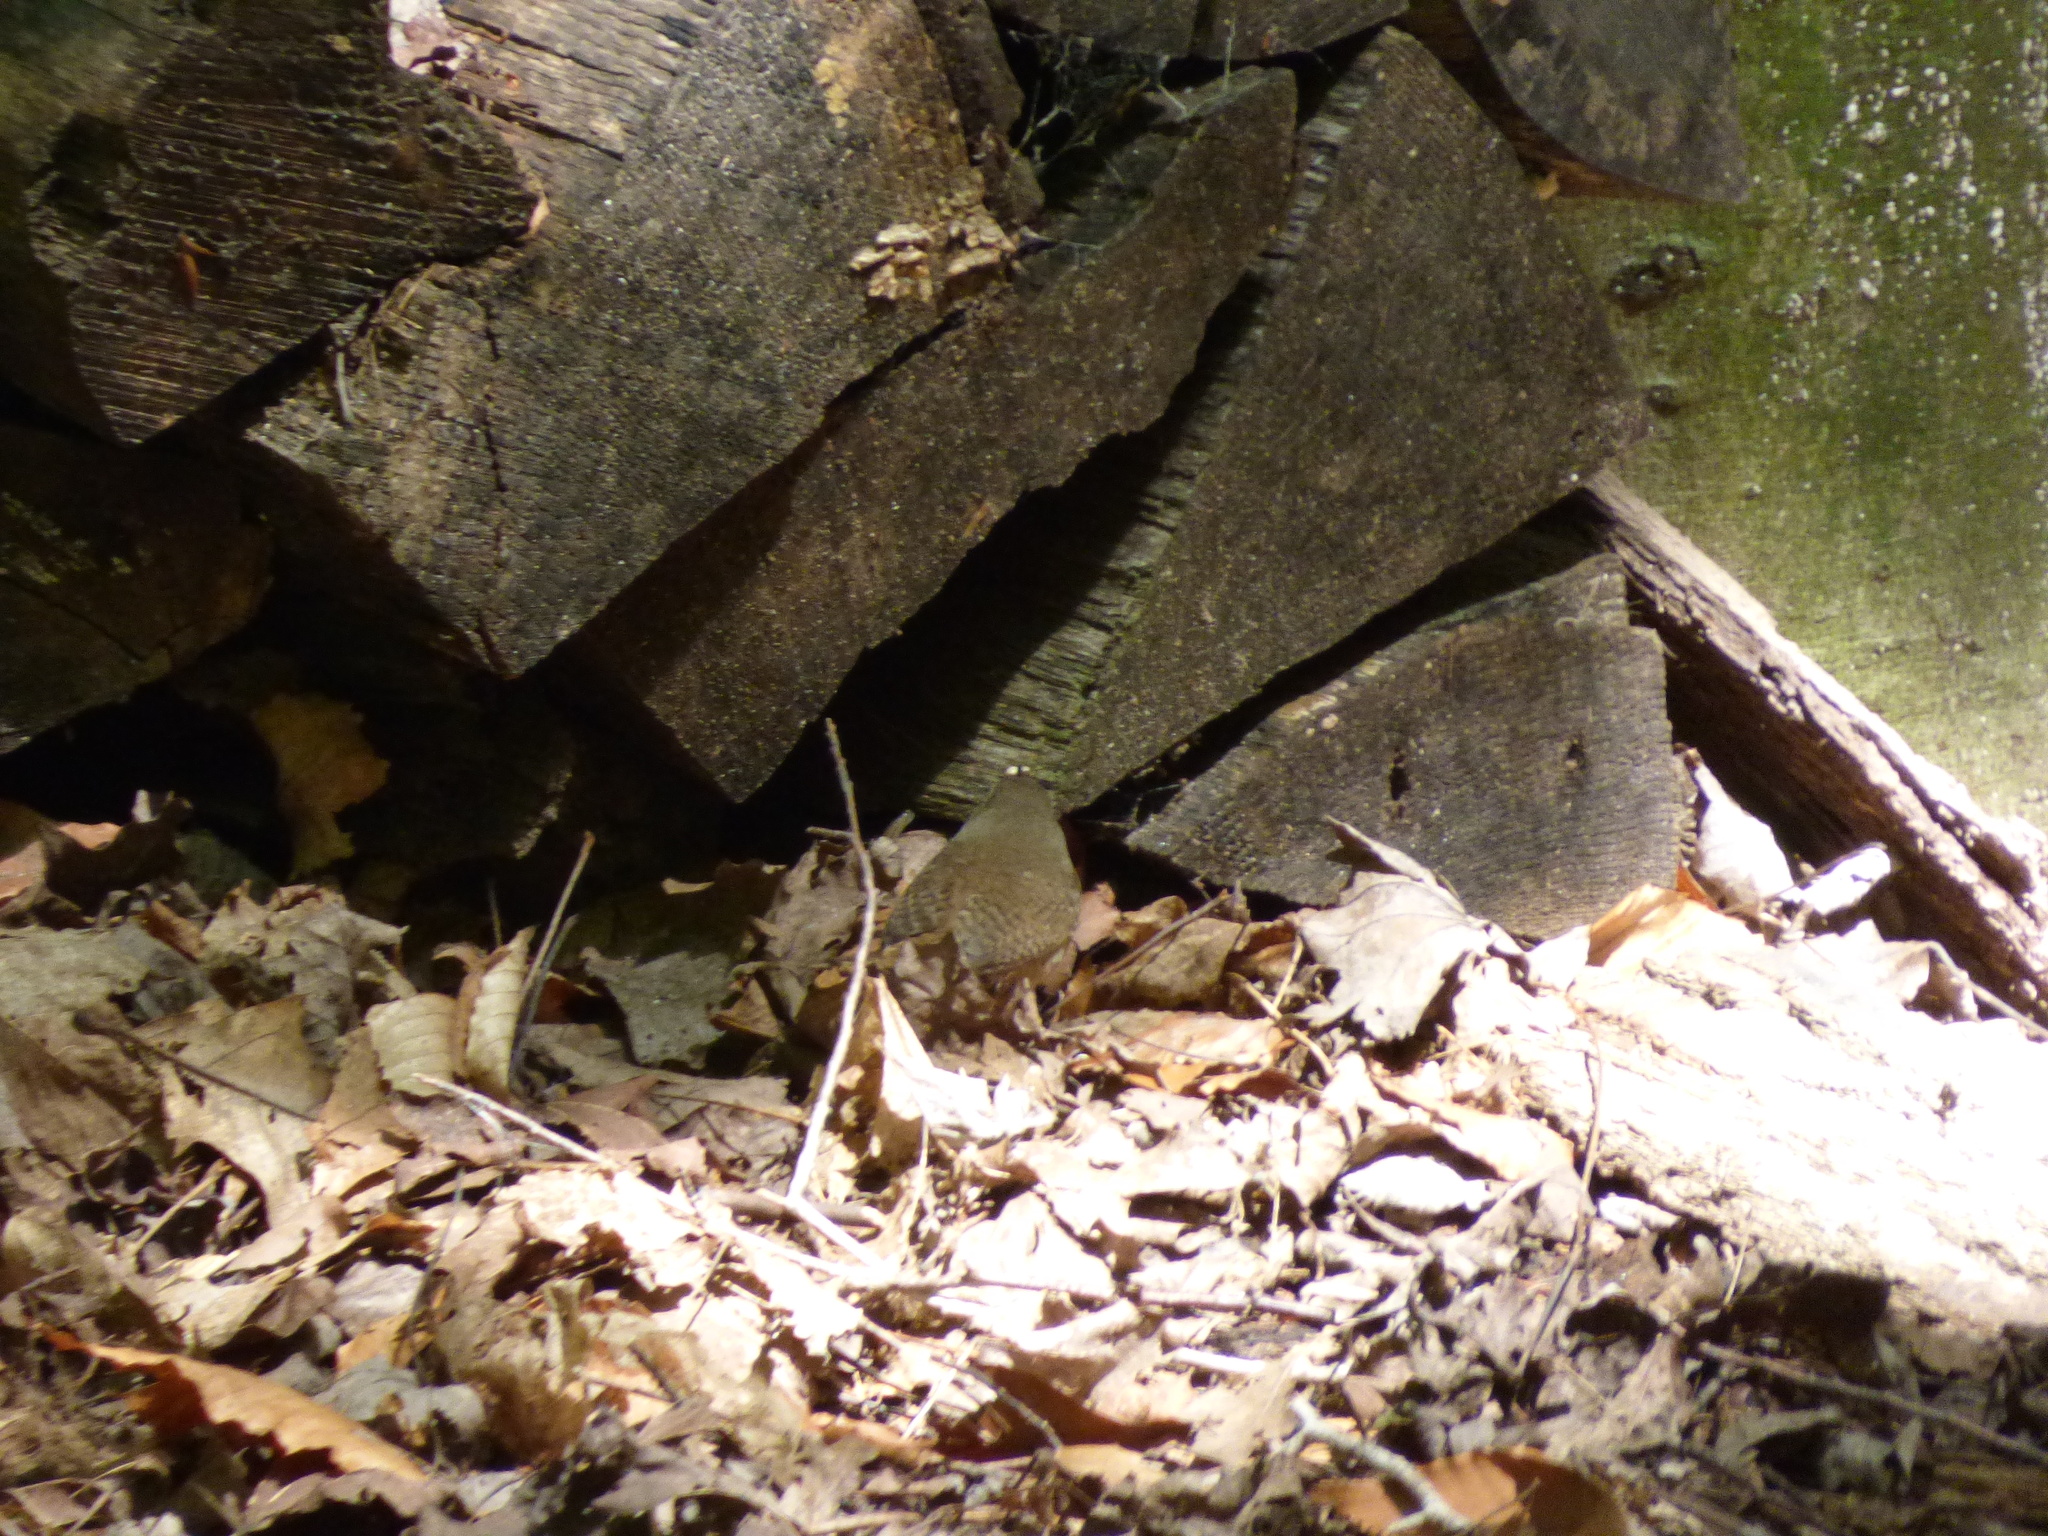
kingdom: Animalia
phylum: Chordata
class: Aves
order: Passeriformes
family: Troglodytidae
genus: Troglodytes
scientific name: Troglodytes aedon
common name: House wren
